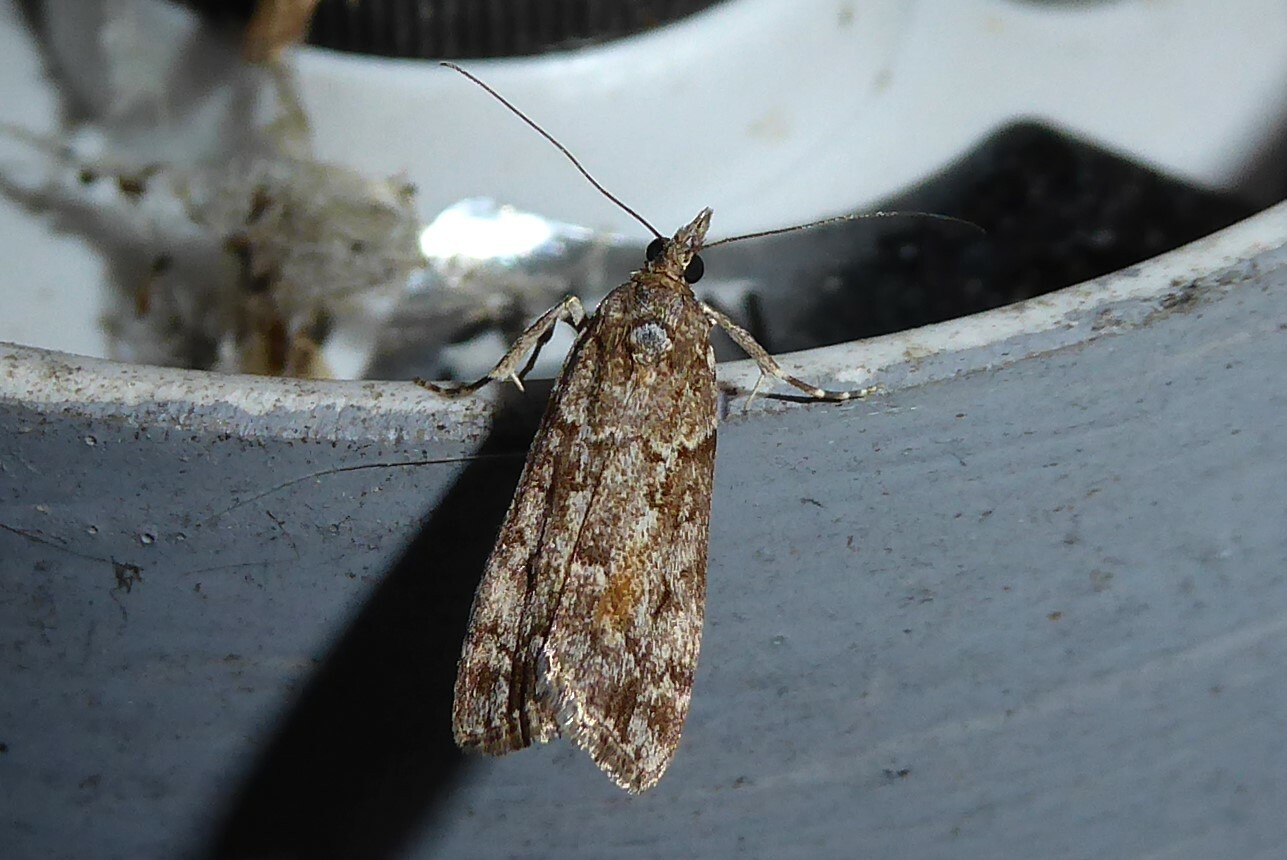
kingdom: Animalia
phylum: Arthropoda
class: Insecta
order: Lepidoptera
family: Crambidae
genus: Eudonia
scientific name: Eudonia submarginalis
